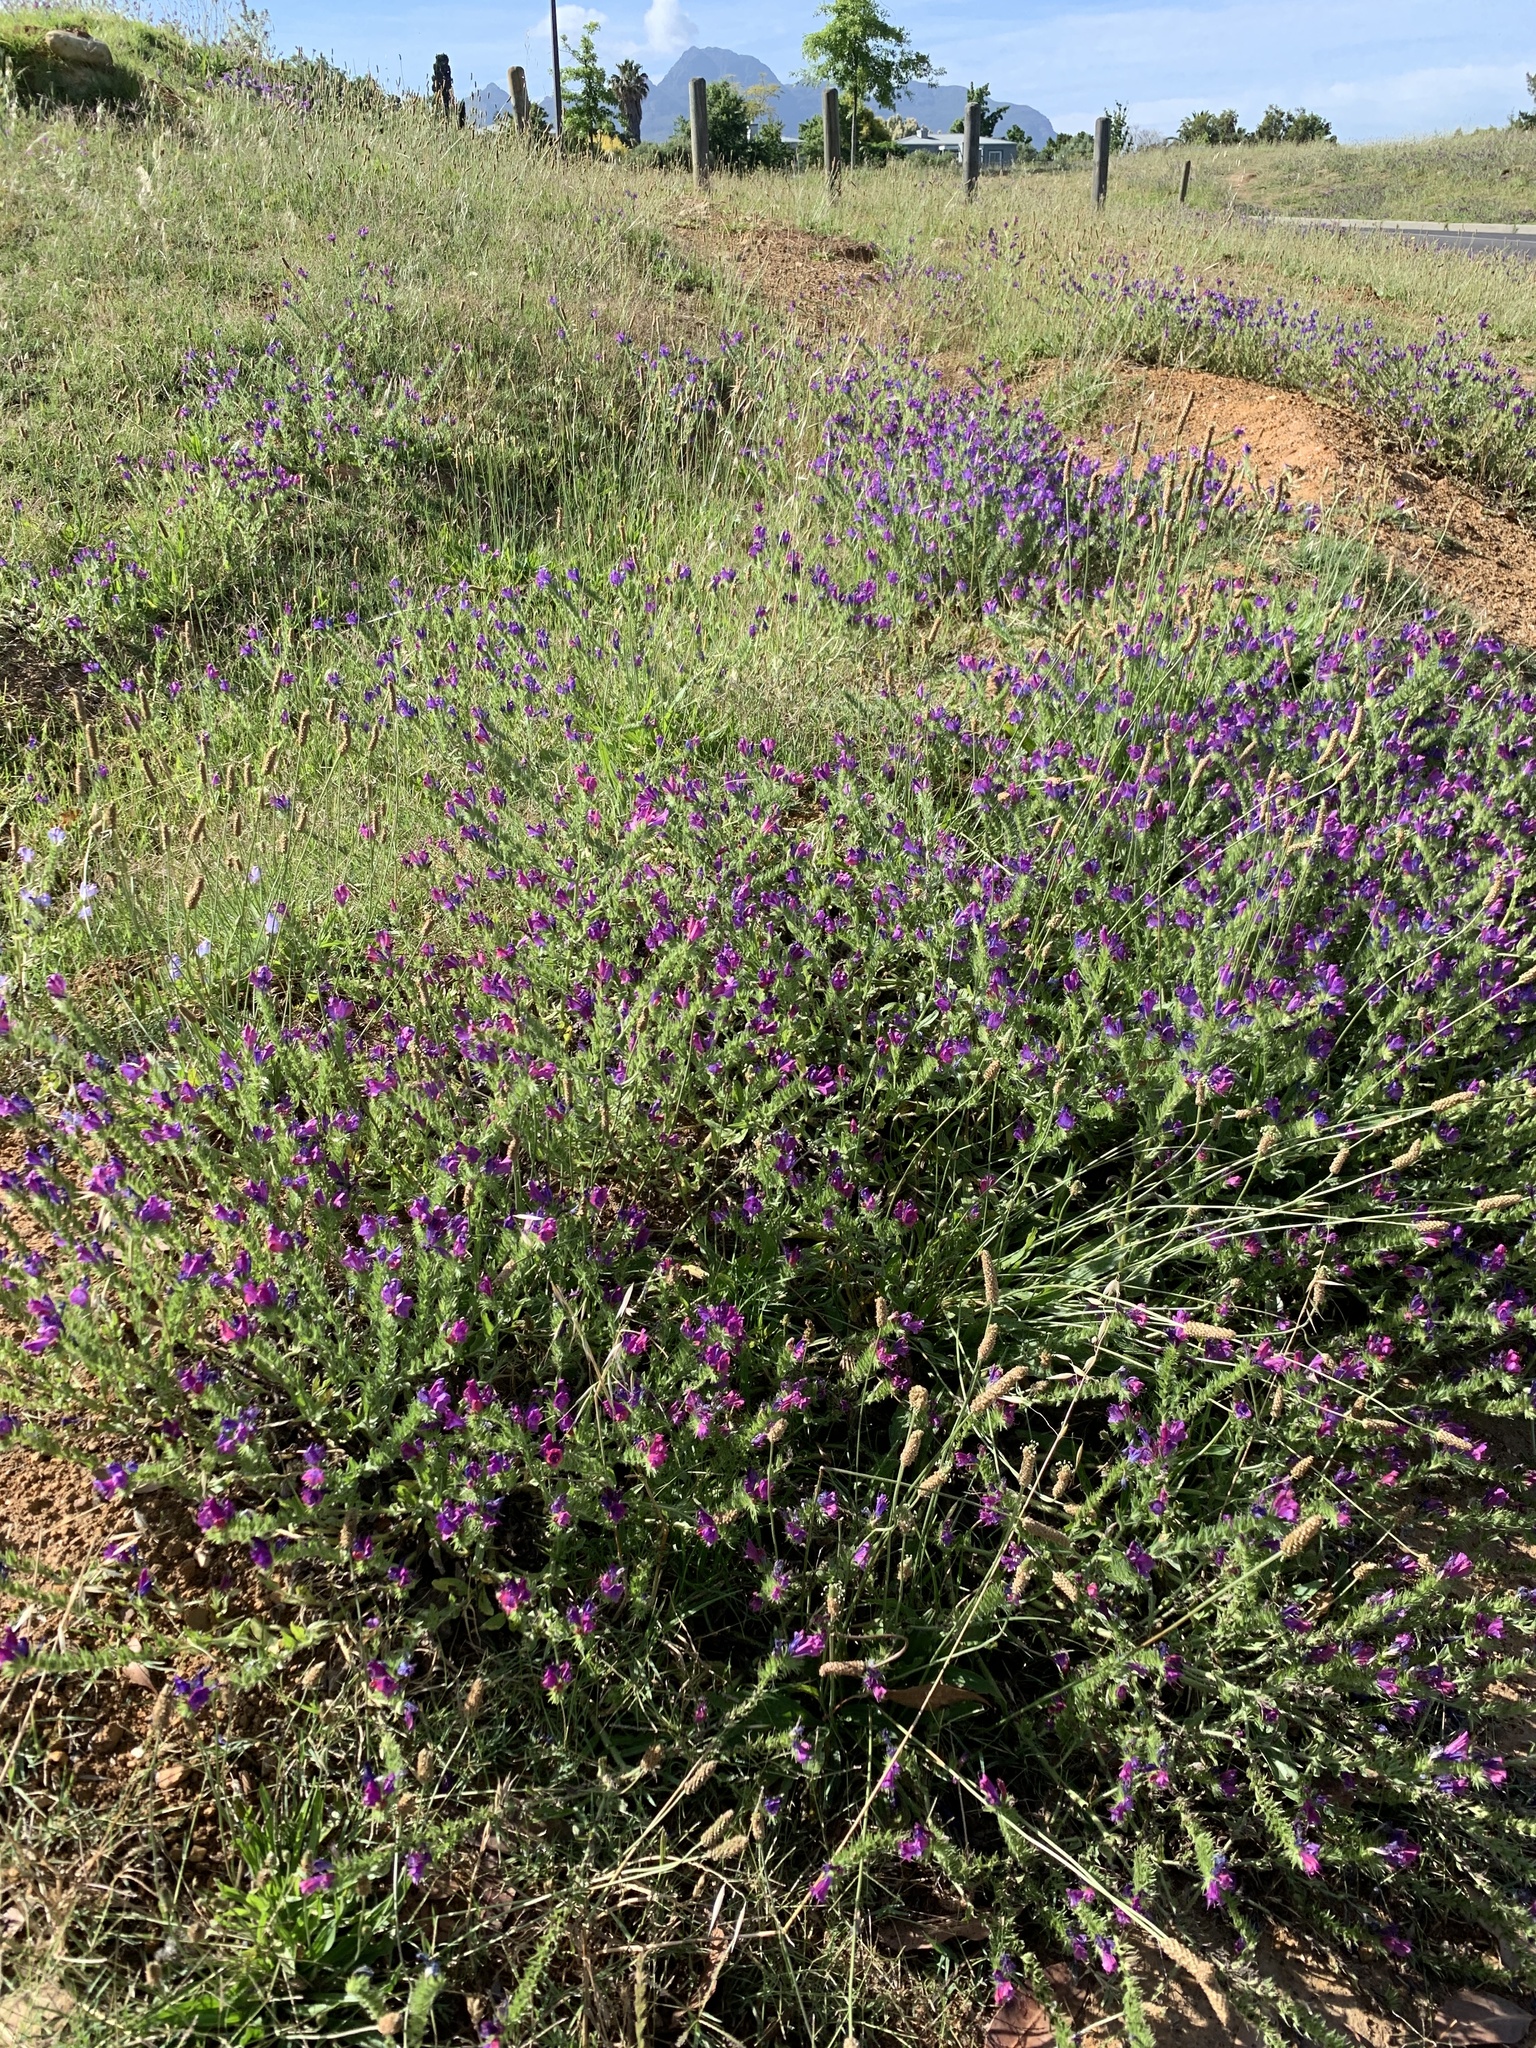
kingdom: Plantae
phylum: Tracheophyta
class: Magnoliopsida
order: Boraginales
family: Boraginaceae
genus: Echium
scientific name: Echium plantagineum
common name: Purple viper's-bugloss
